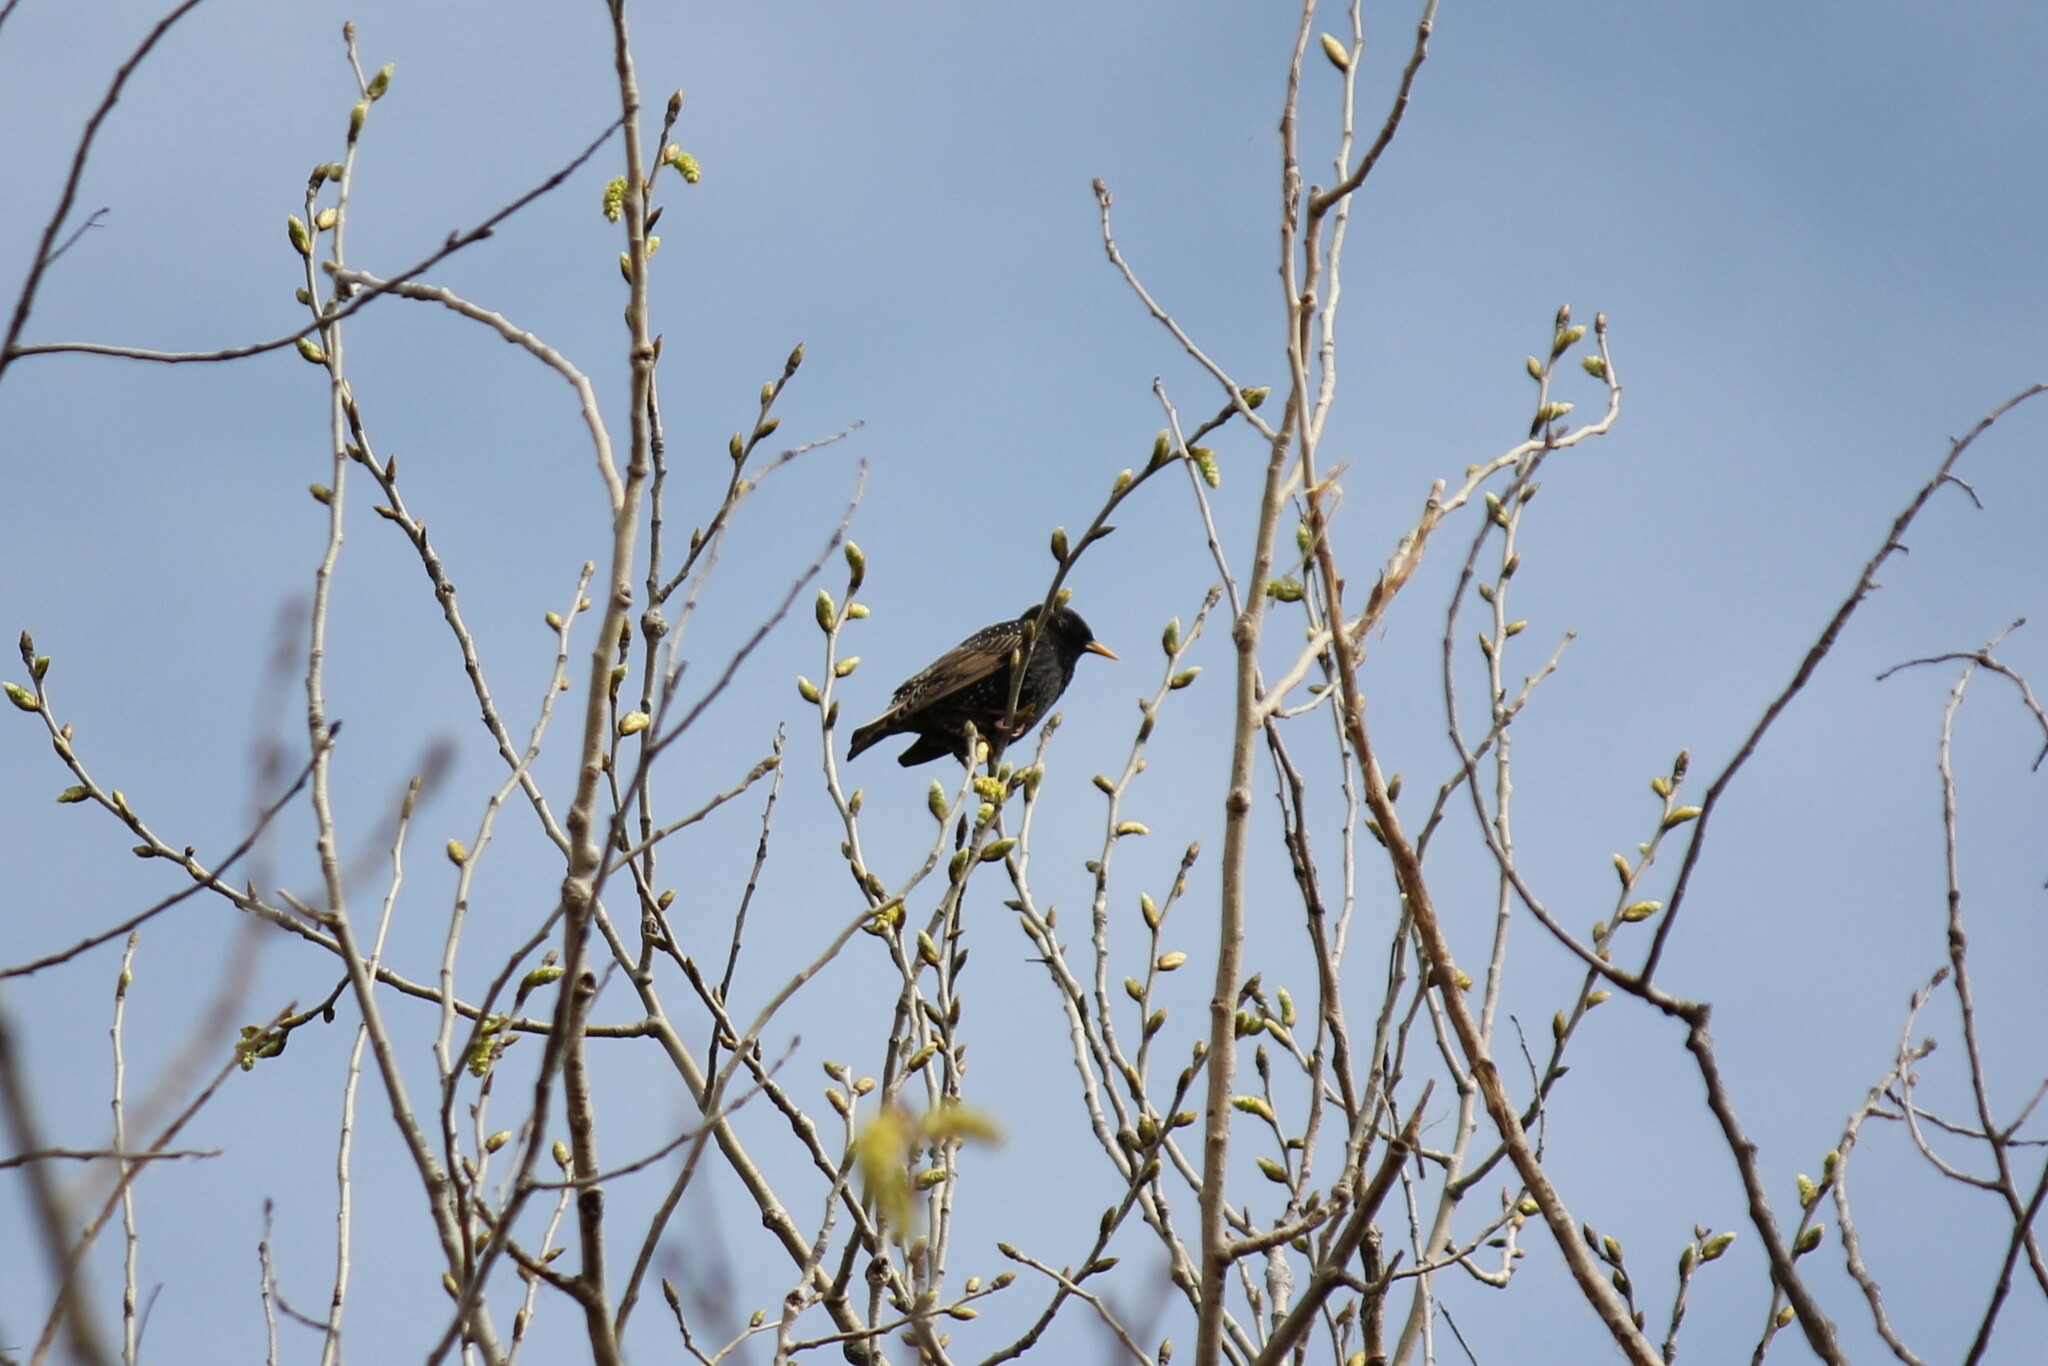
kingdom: Animalia
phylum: Chordata
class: Aves
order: Passeriformes
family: Sturnidae
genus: Sturnus
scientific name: Sturnus vulgaris
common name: Common starling
